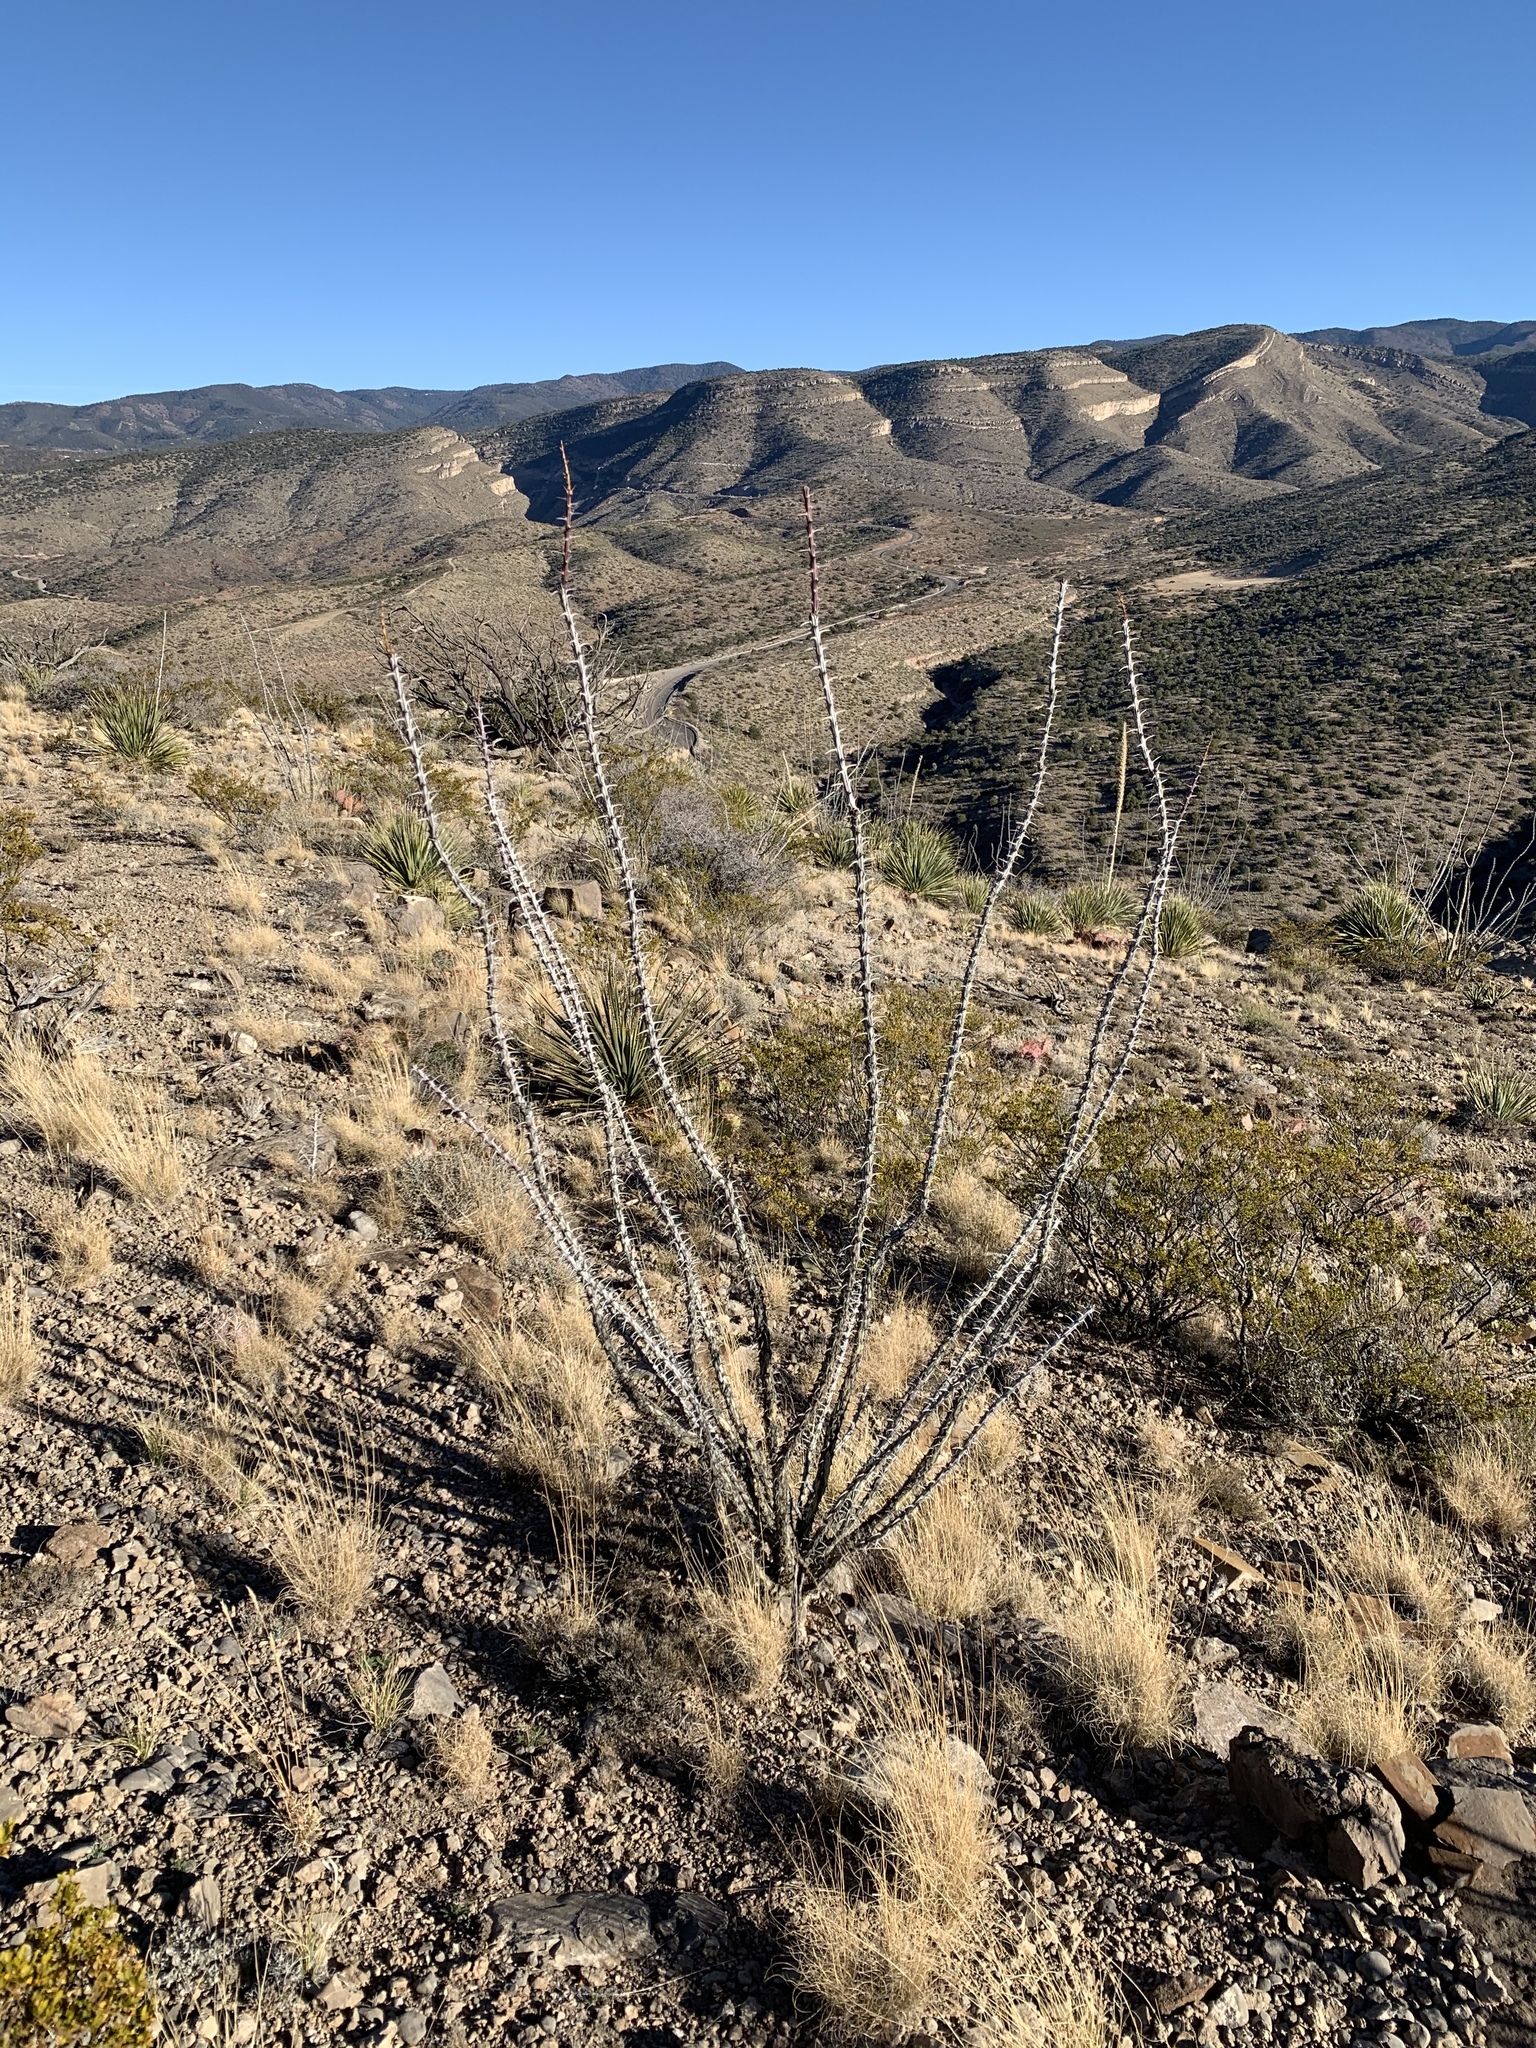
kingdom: Plantae
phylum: Tracheophyta
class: Magnoliopsida
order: Ericales
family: Fouquieriaceae
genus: Fouquieria
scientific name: Fouquieria splendens
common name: Vine-cactus
